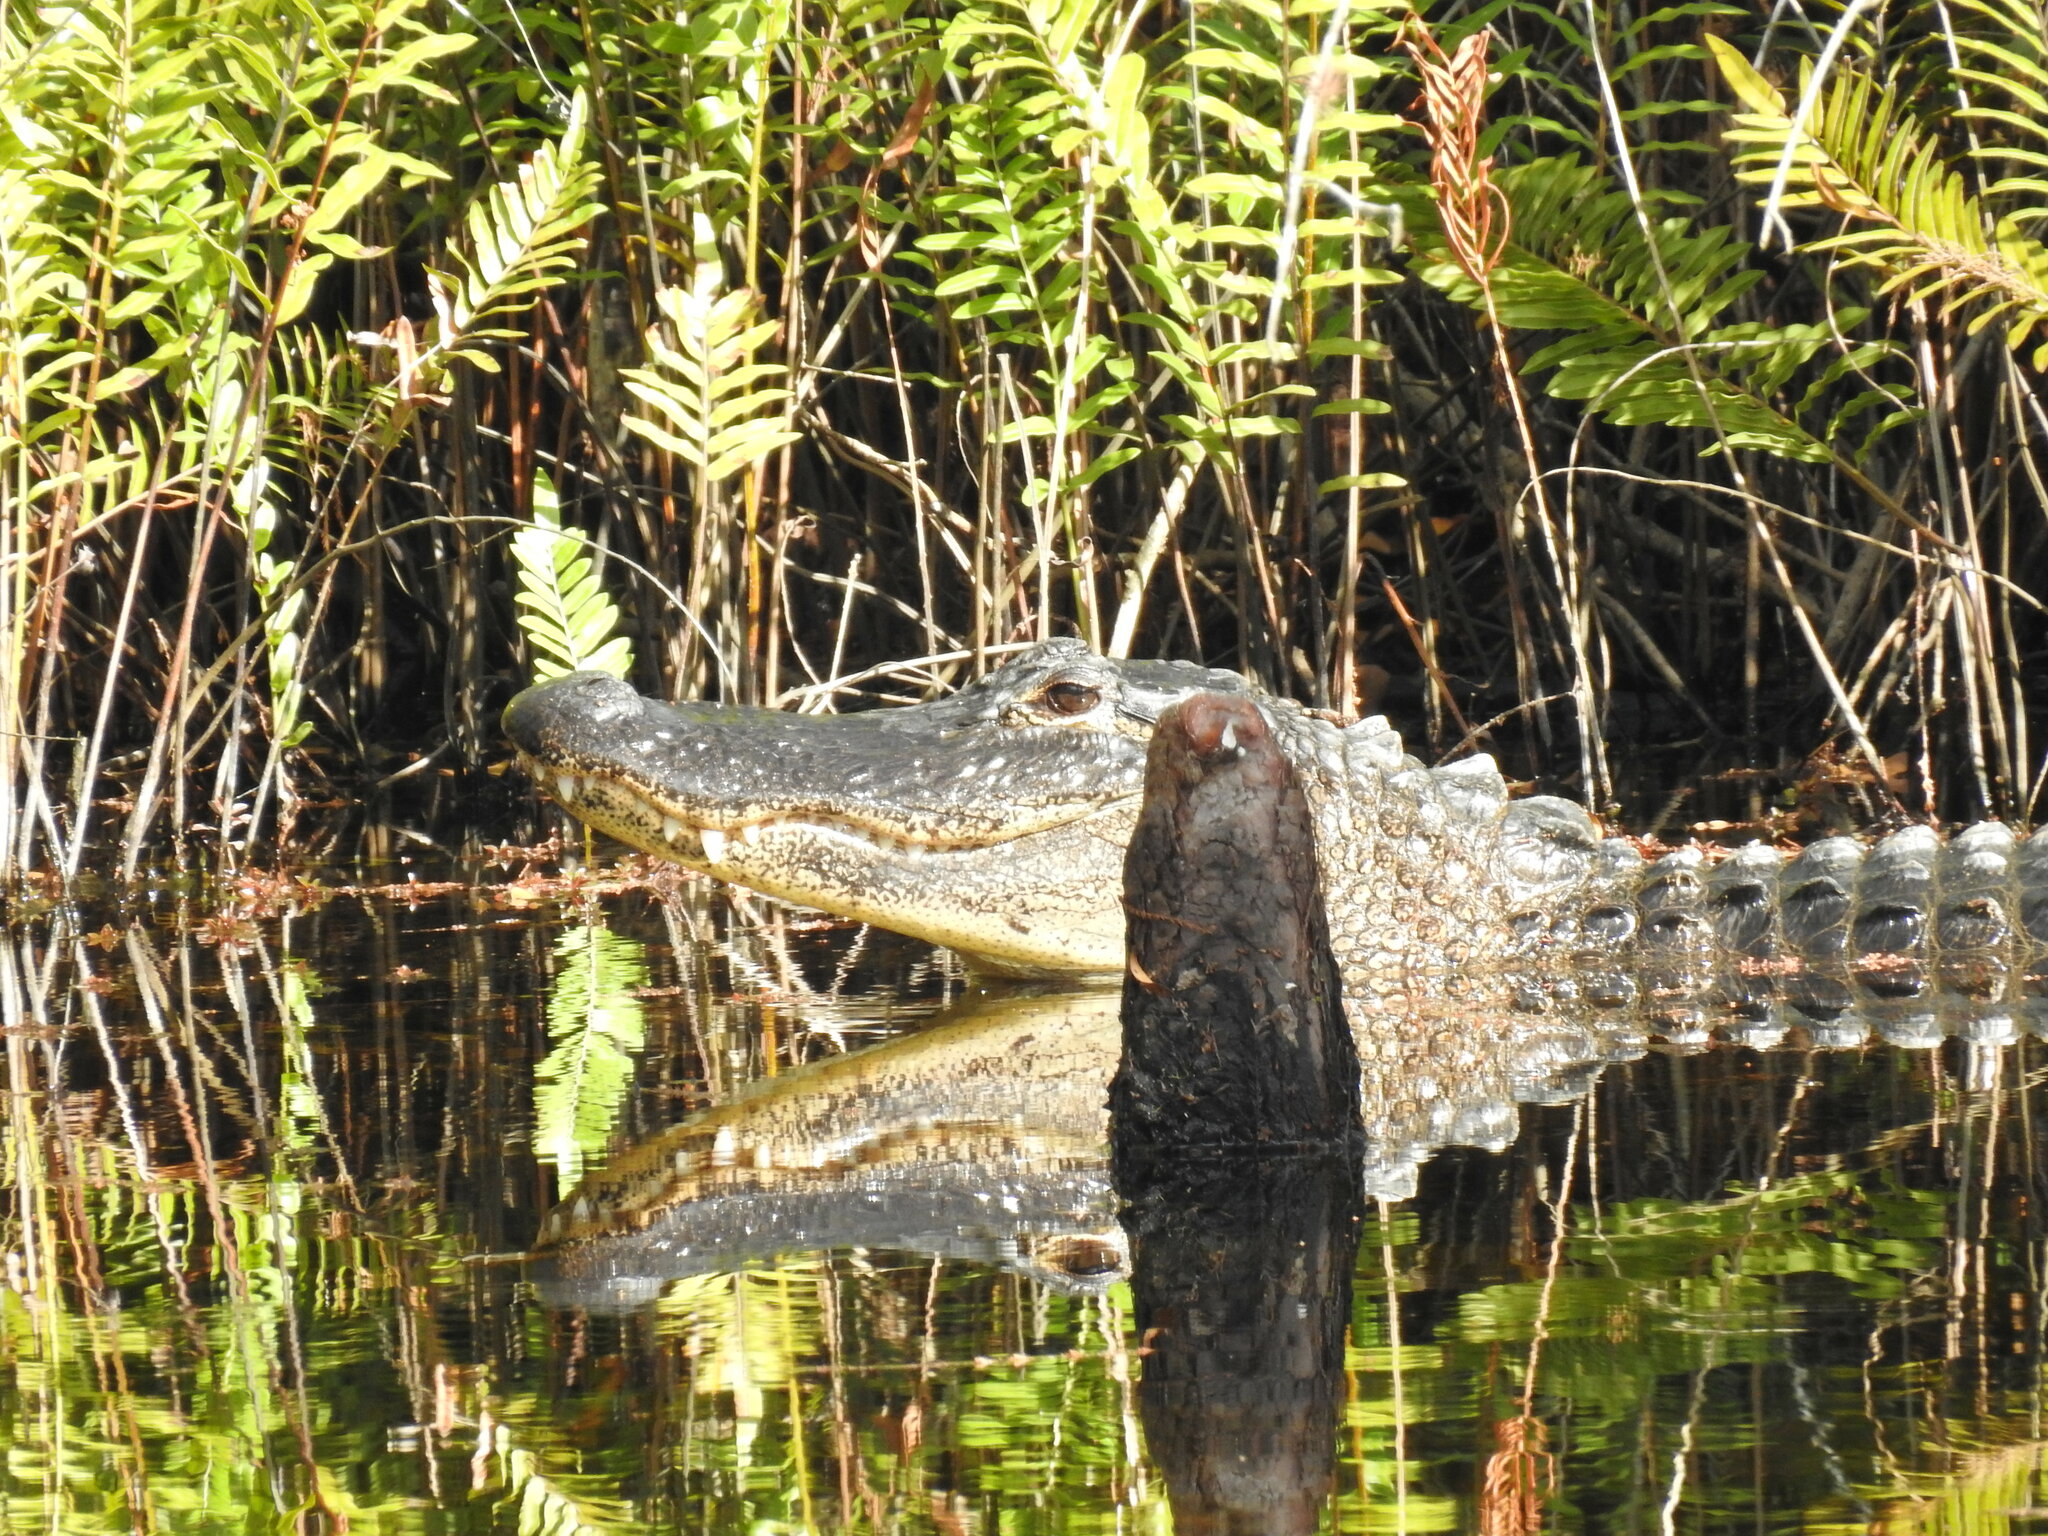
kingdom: Animalia
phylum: Chordata
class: Crocodylia
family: Alligatoridae
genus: Alligator
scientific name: Alligator mississippiensis
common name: American alligator
